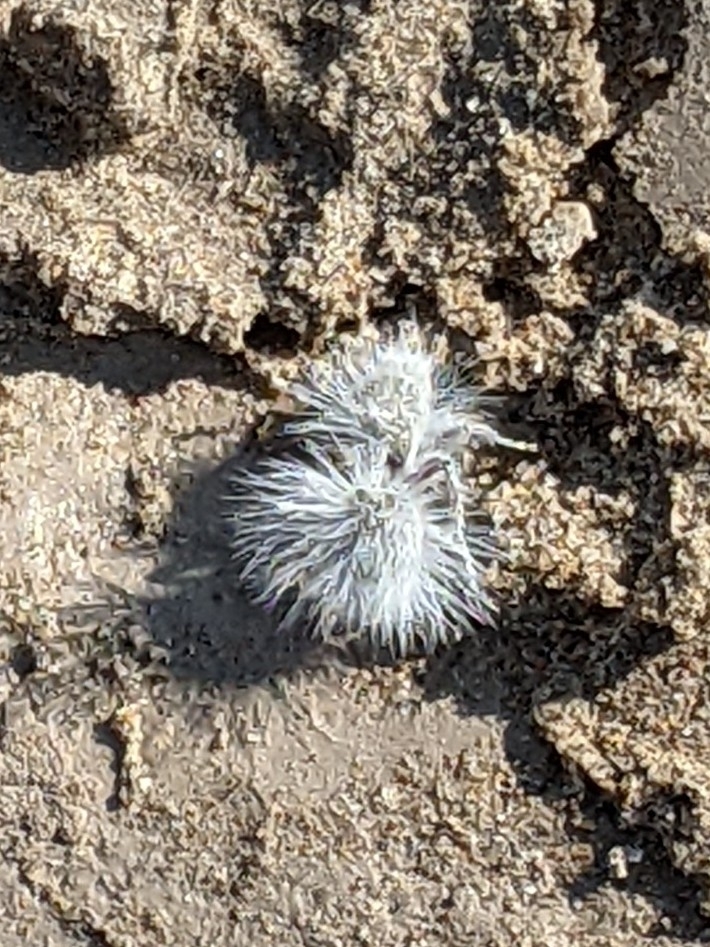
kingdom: Animalia
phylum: Arthropoda
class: Insecta
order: Hymenoptera
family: Mutillidae
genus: Dasymutilla
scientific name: Dasymutilla gloriosa
